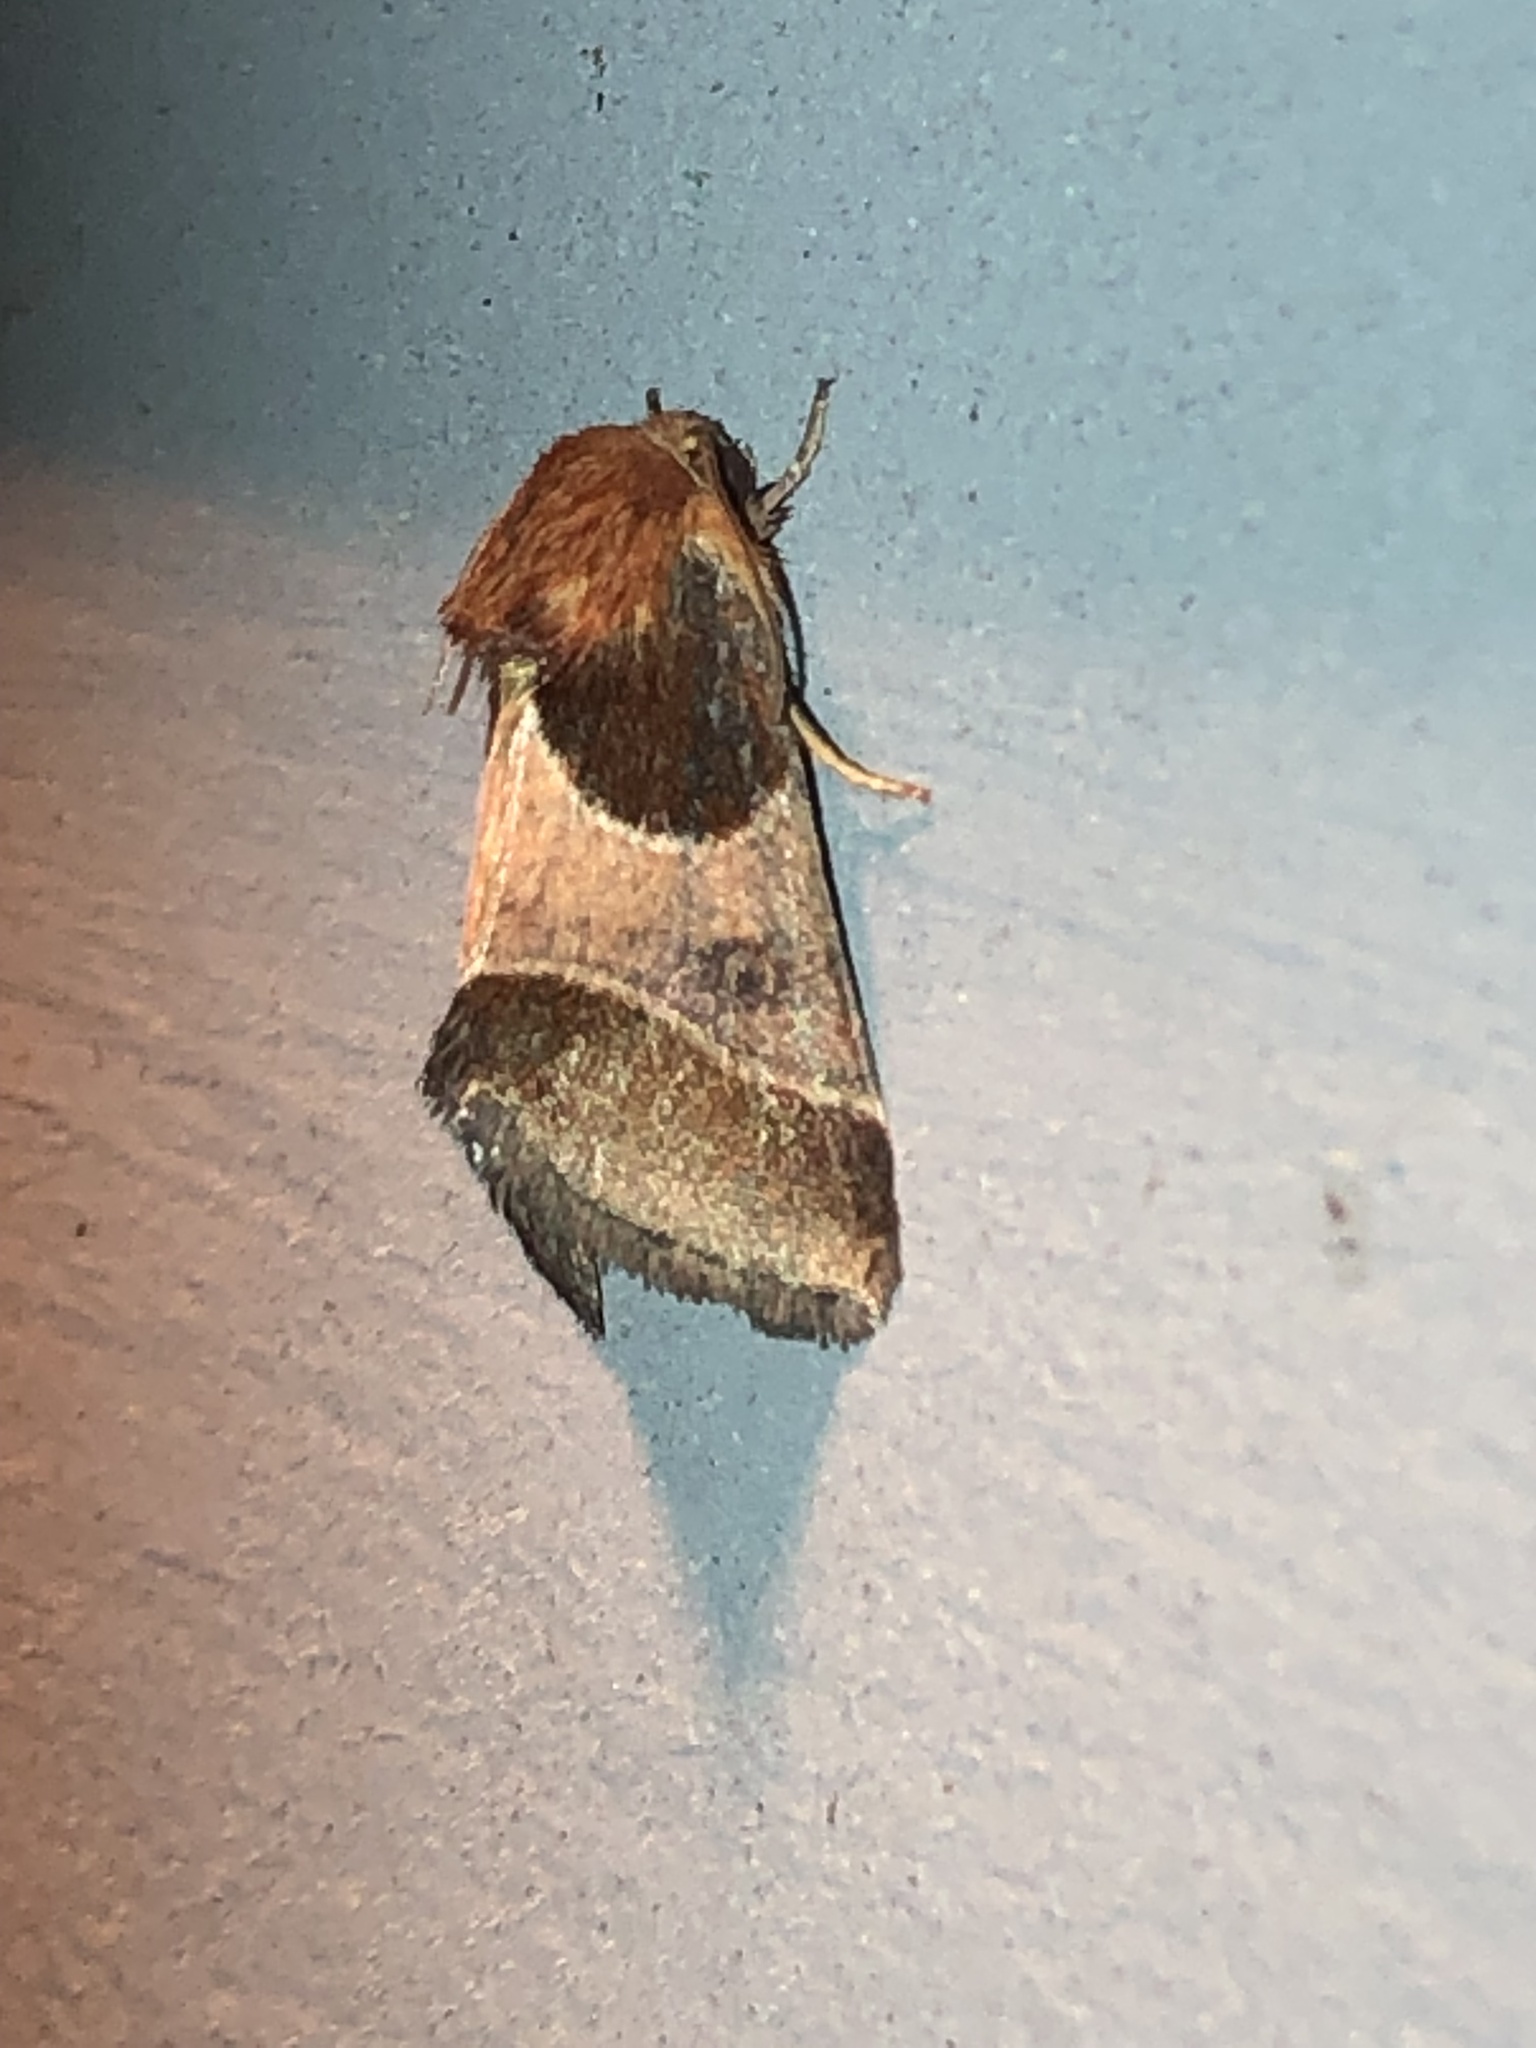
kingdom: Animalia
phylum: Arthropoda
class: Insecta
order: Lepidoptera
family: Noctuidae
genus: Schinia
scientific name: Schinia arcigera
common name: Arcigera flower moth
